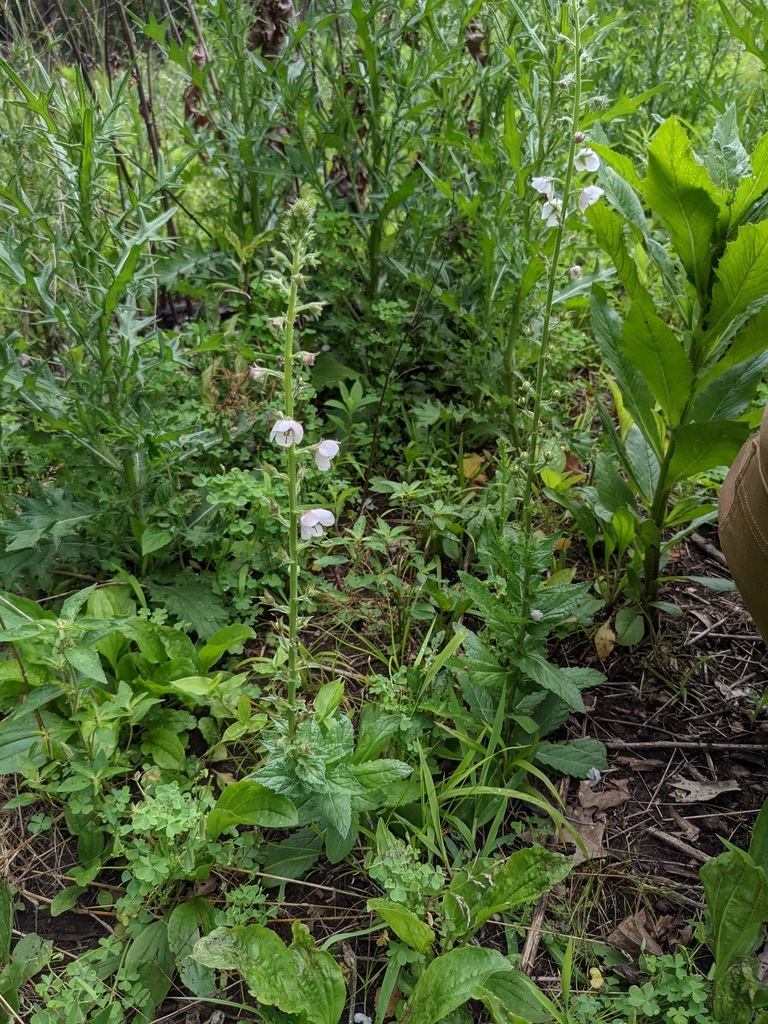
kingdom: Plantae
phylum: Tracheophyta
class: Magnoliopsida
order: Lamiales
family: Scrophulariaceae
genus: Verbascum
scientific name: Verbascum blattaria
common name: Moth mullein
